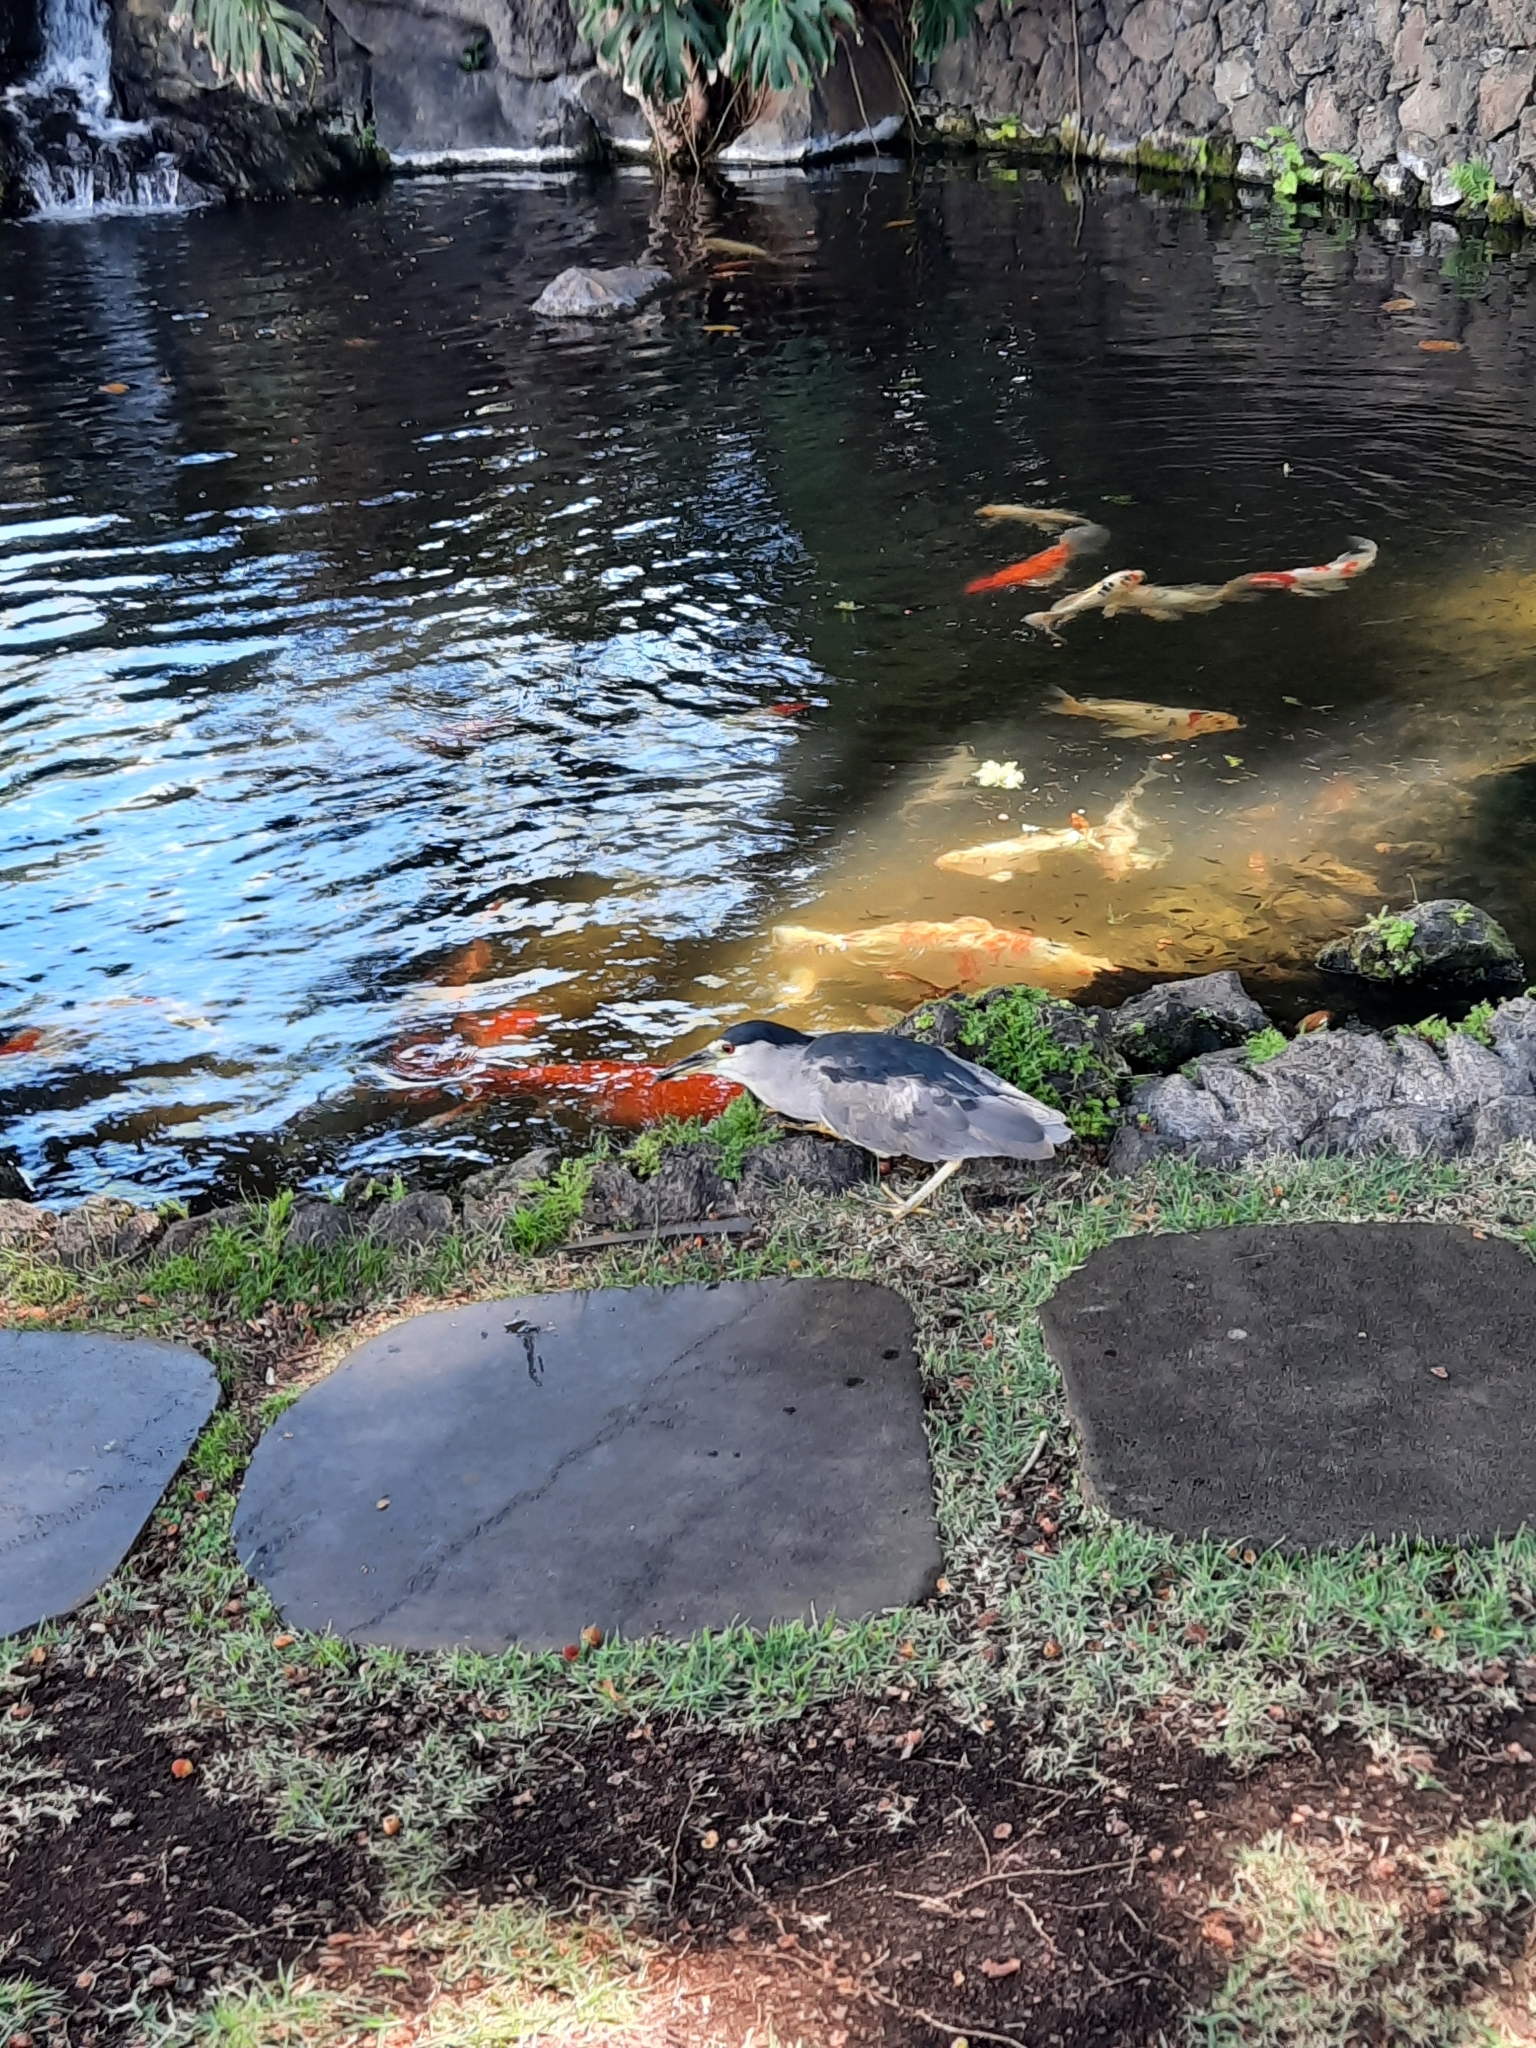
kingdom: Animalia
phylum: Chordata
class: Aves
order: Pelecaniformes
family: Ardeidae
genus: Nycticorax
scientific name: Nycticorax nycticorax
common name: Black-crowned night heron
